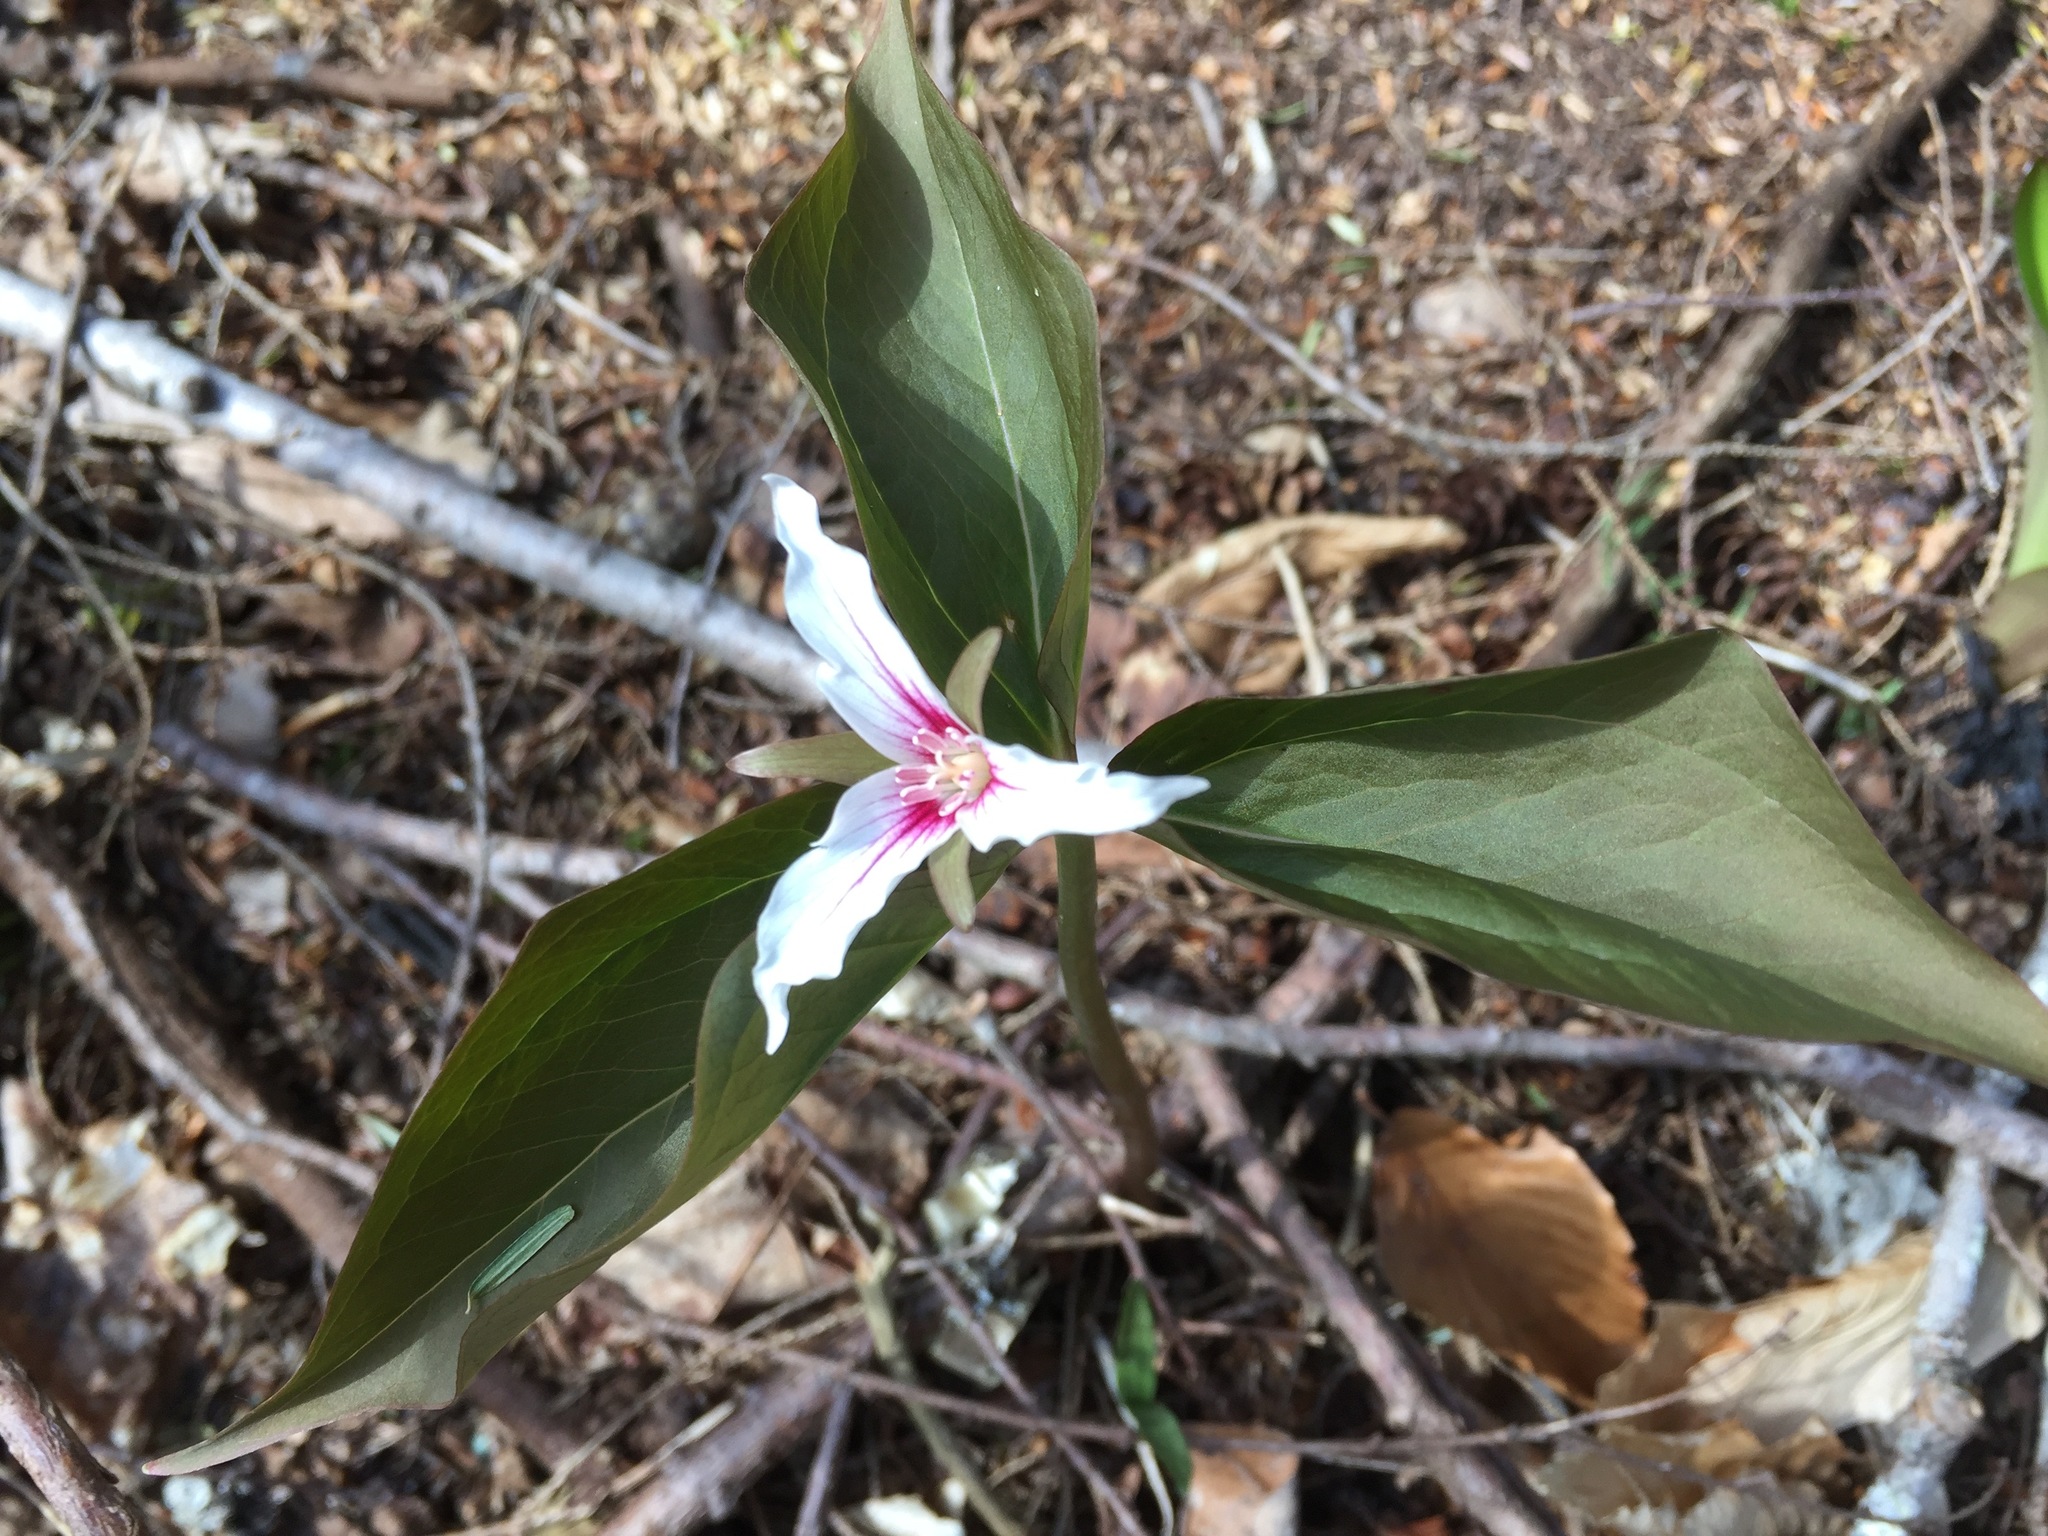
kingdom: Plantae
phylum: Tracheophyta
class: Liliopsida
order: Liliales
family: Melanthiaceae
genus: Trillium
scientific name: Trillium undulatum
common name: Paint trillium
